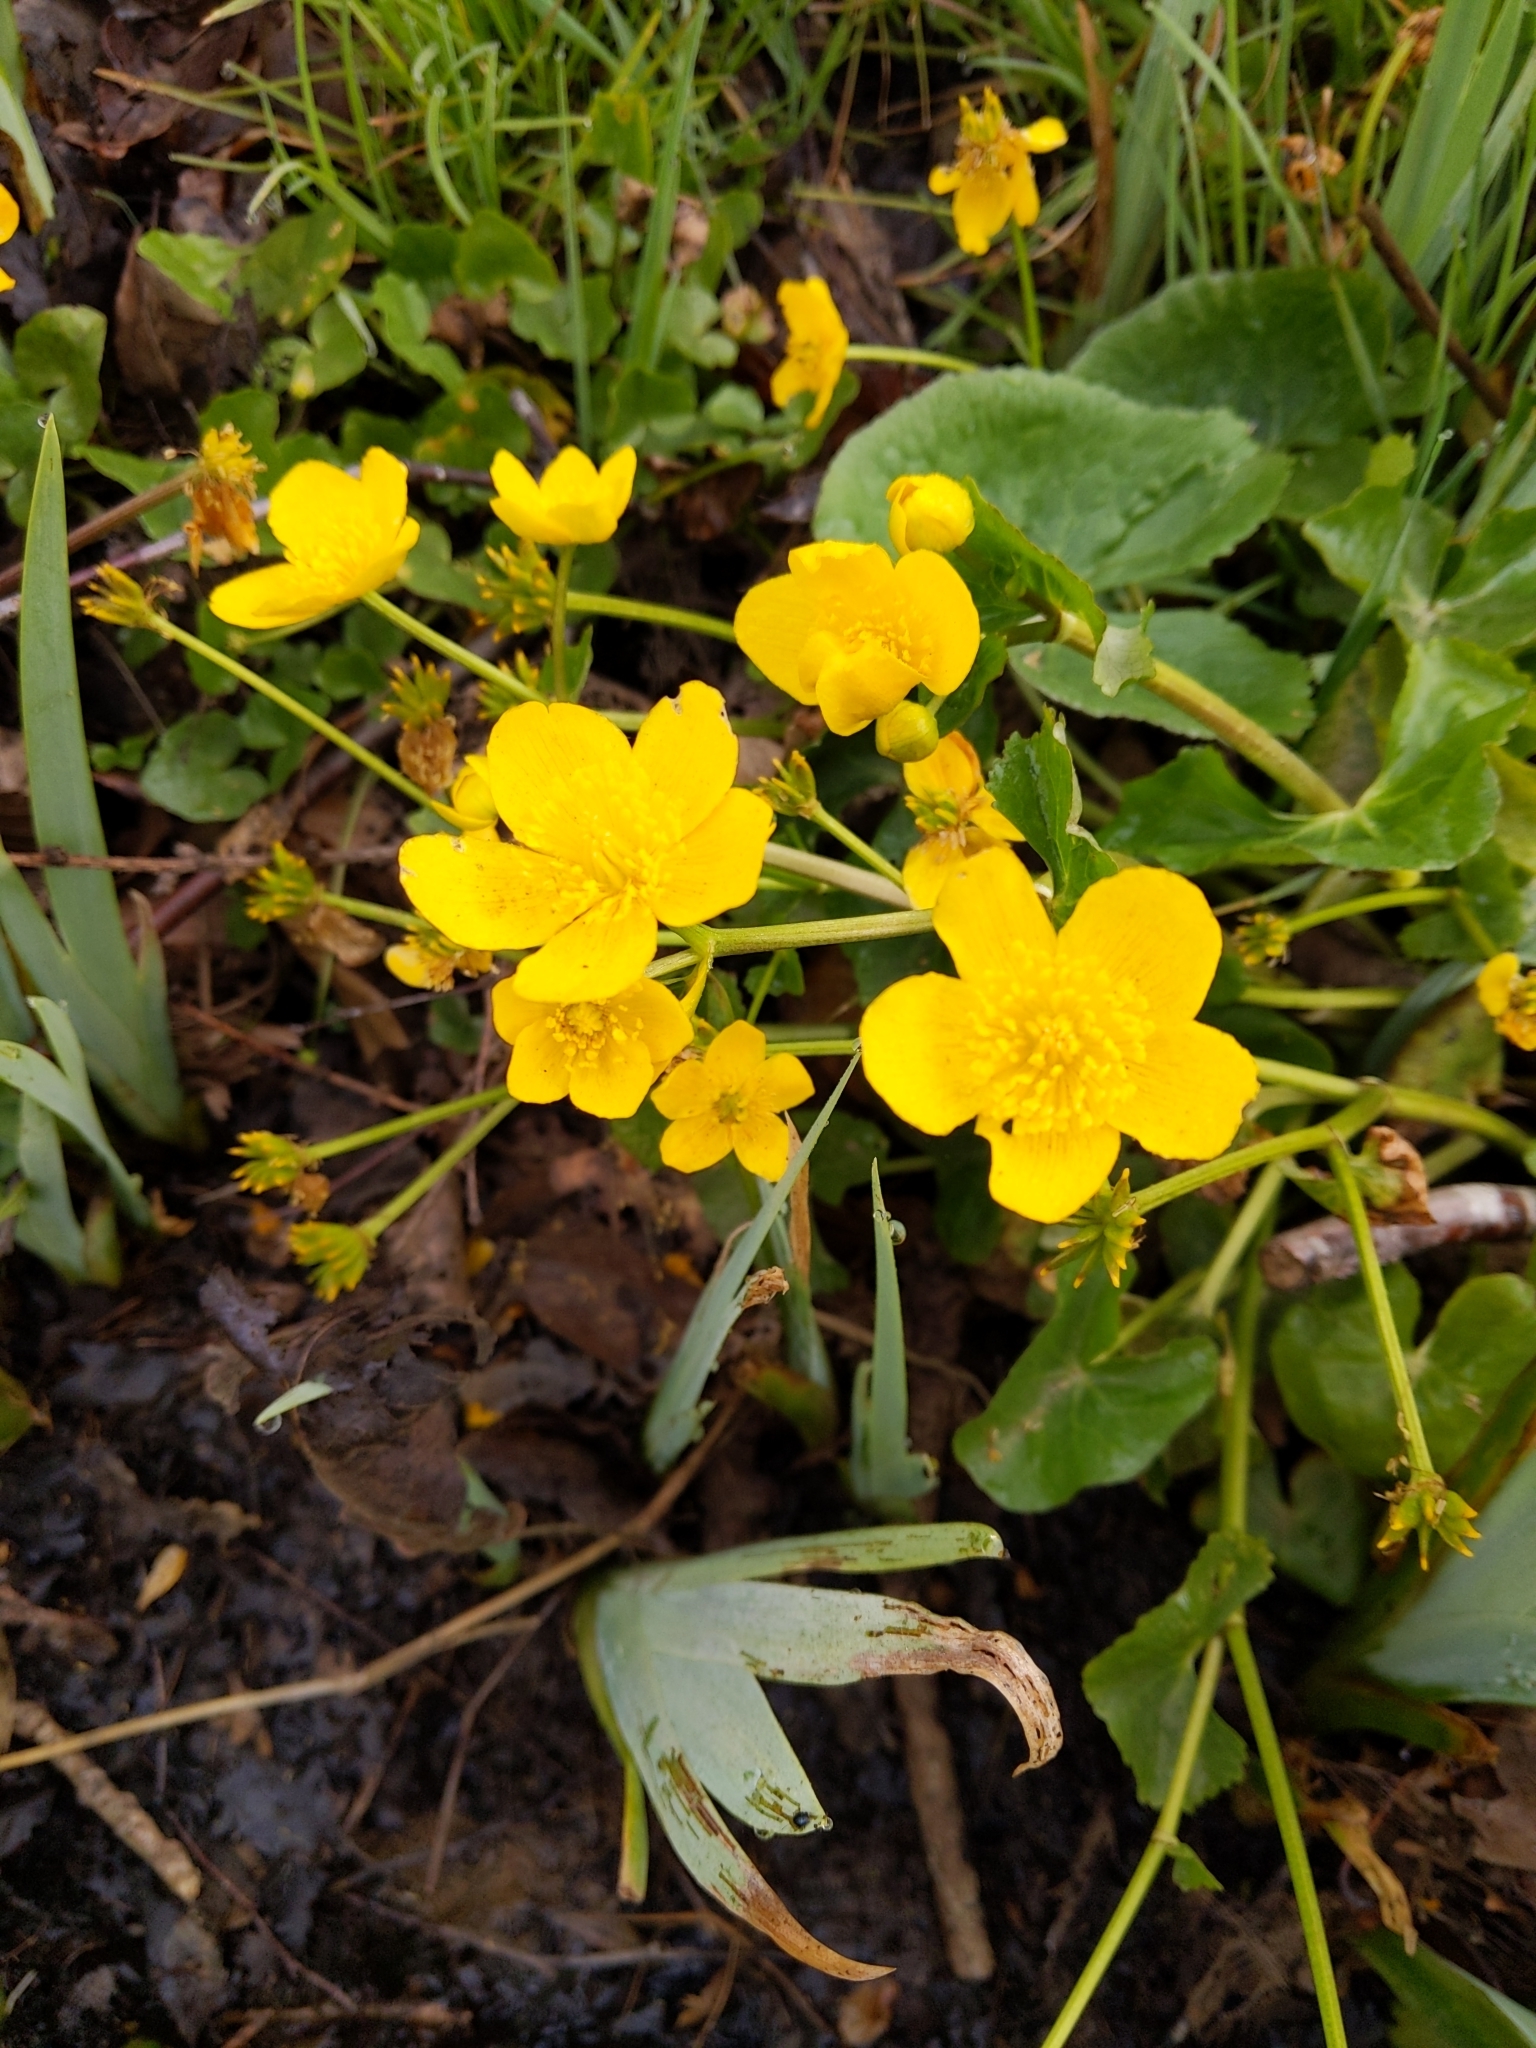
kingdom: Plantae
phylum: Tracheophyta
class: Magnoliopsida
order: Ranunculales
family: Ranunculaceae
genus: Caltha
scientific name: Caltha palustris
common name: Marsh marigold
